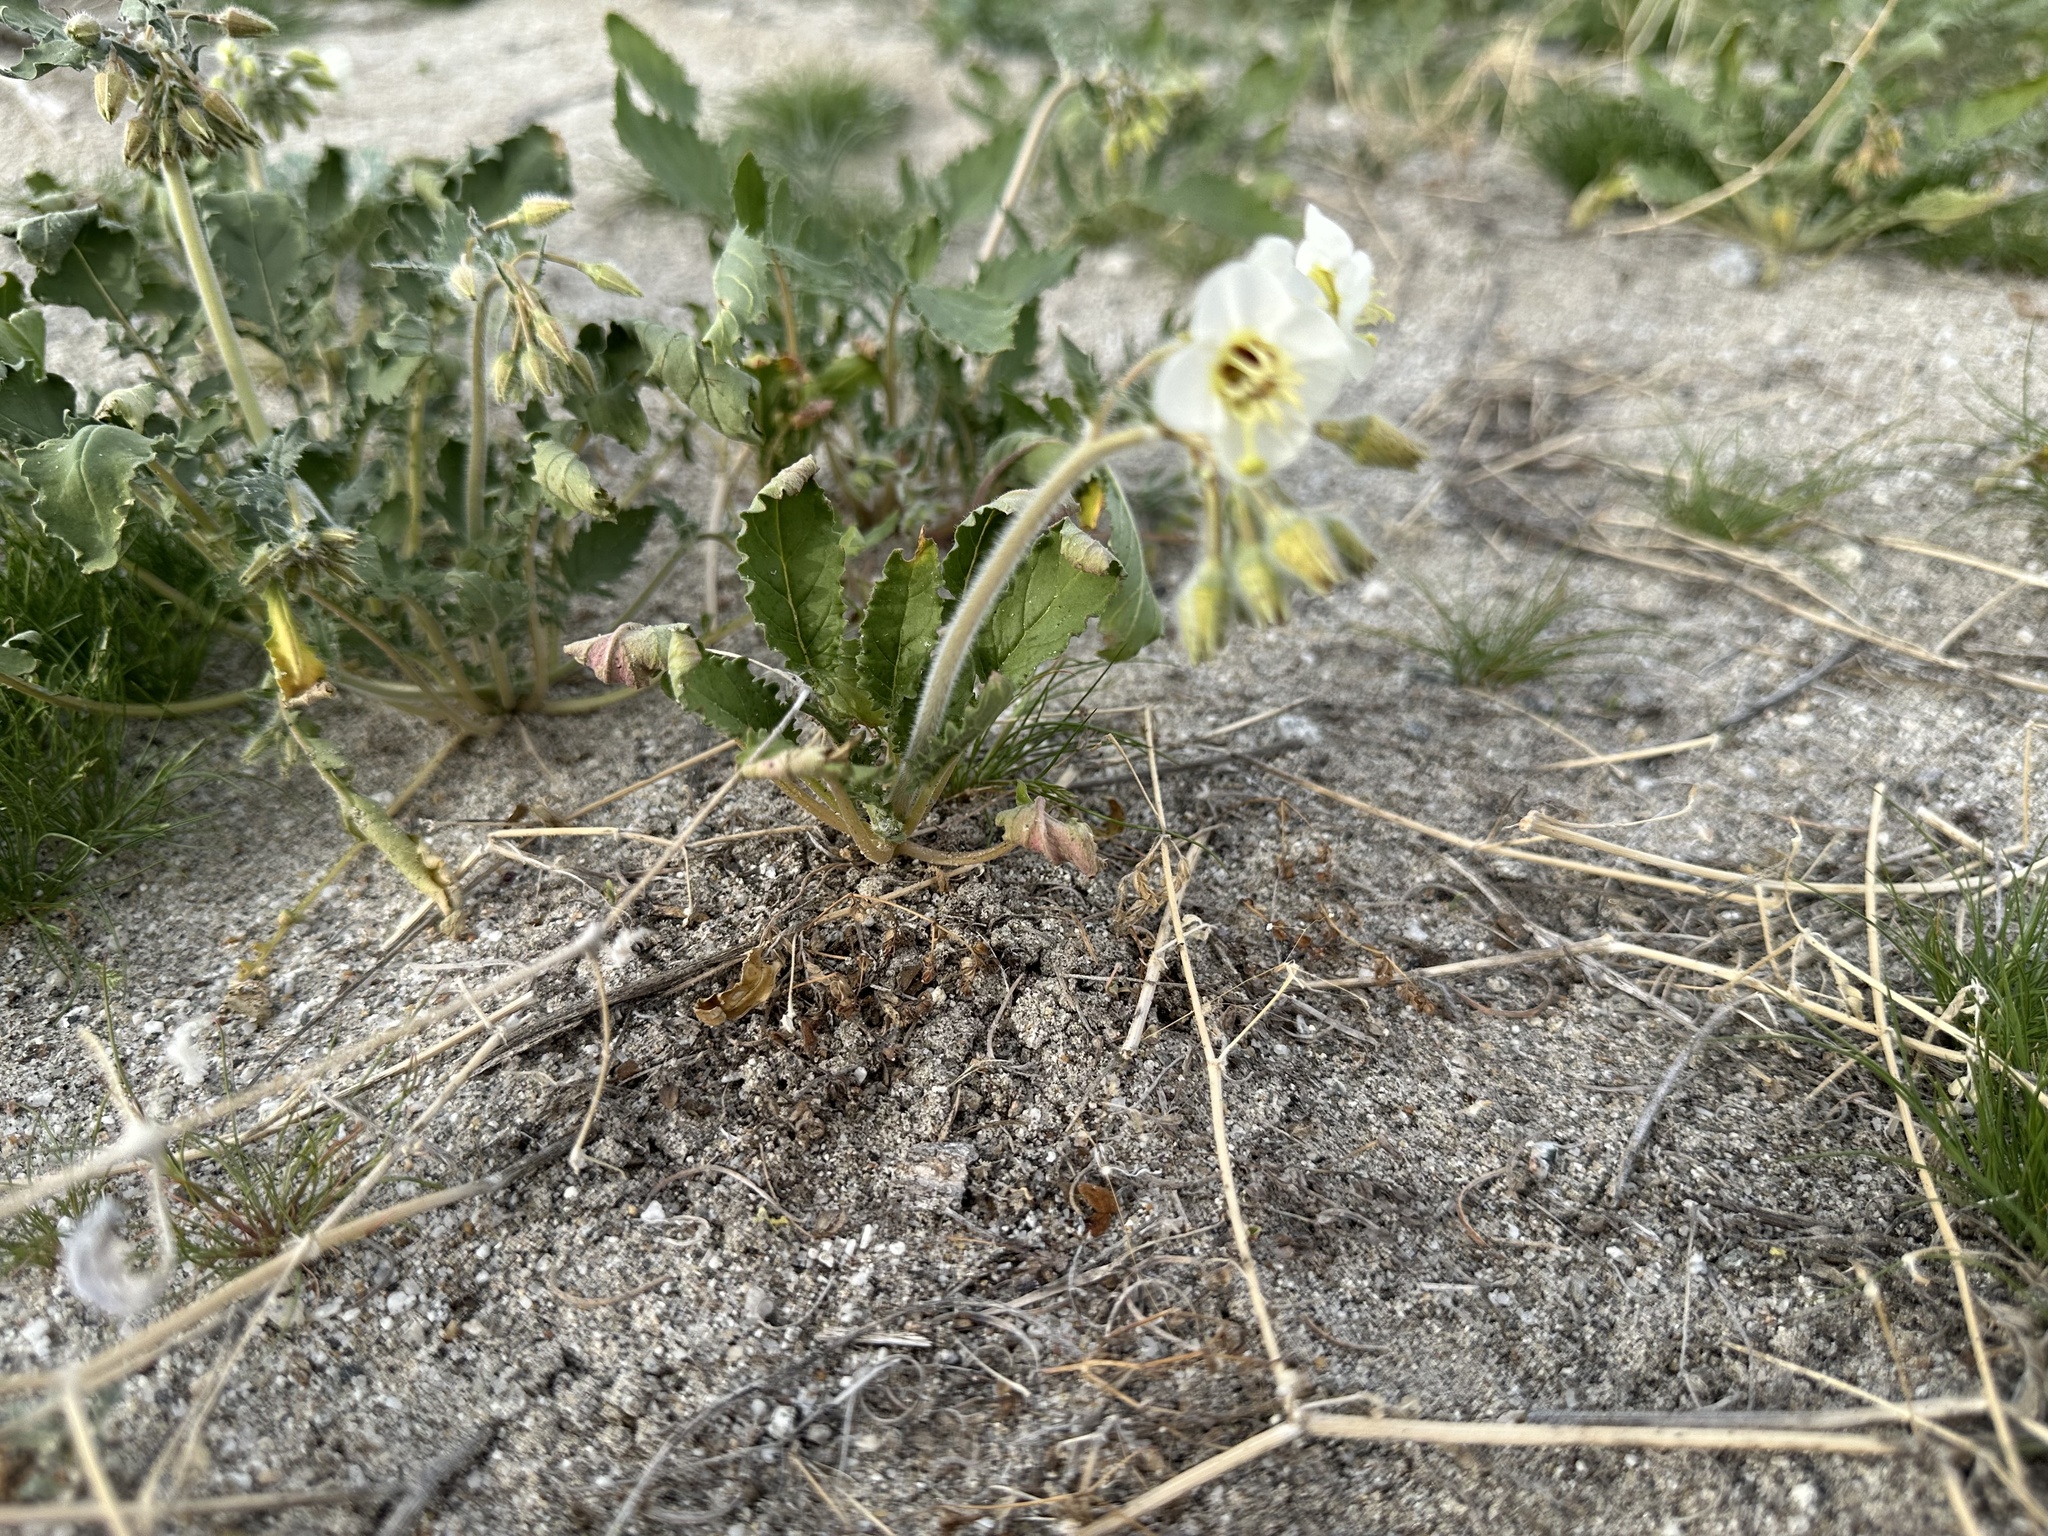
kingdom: Plantae
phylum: Tracheophyta
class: Magnoliopsida
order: Myrtales
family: Onagraceae
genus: Chylismia
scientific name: Chylismia claviformis
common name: Browneyes
